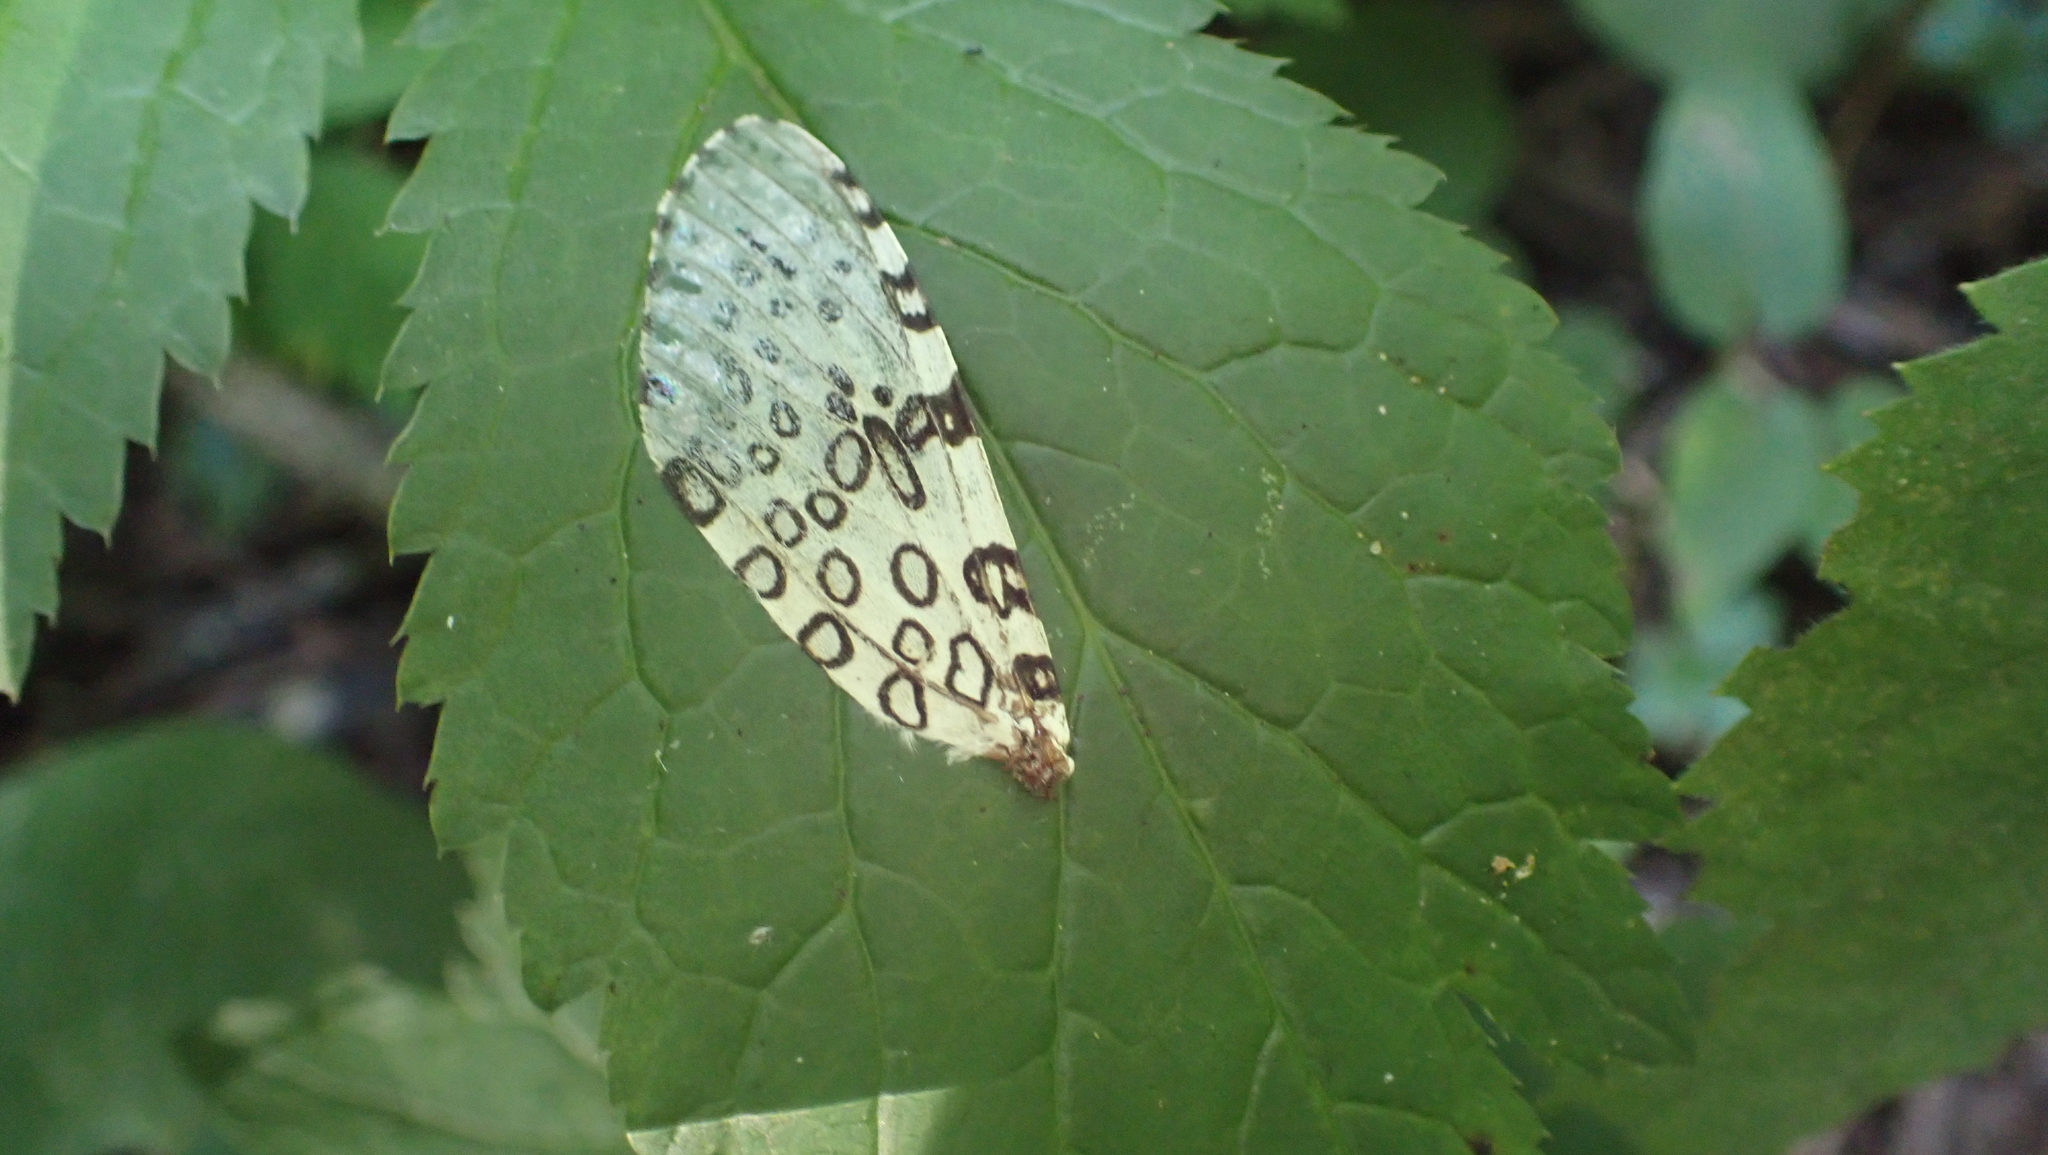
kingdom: Animalia
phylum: Arthropoda
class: Insecta
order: Lepidoptera
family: Erebidae
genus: Hypercompe
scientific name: Hypercompe scribonia
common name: Giant leopard moth
